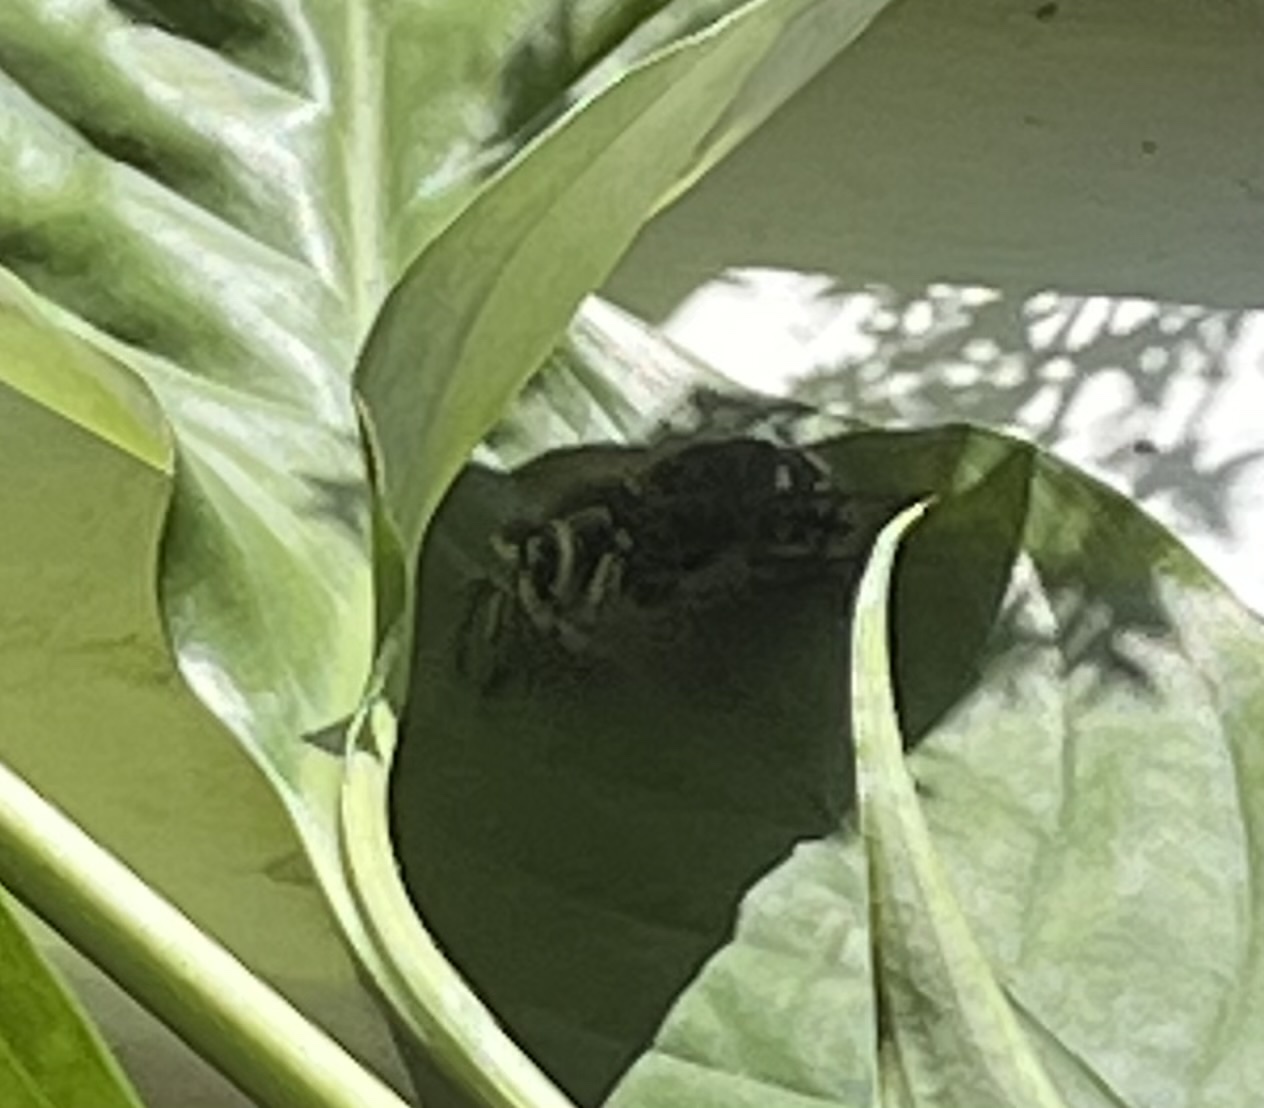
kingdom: Animalia
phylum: Arthropoda
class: Insecta
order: Hymenoptera
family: Vespidae
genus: Dolichovespula
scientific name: Dolichovespula maculata
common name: Bald-faced hornet
